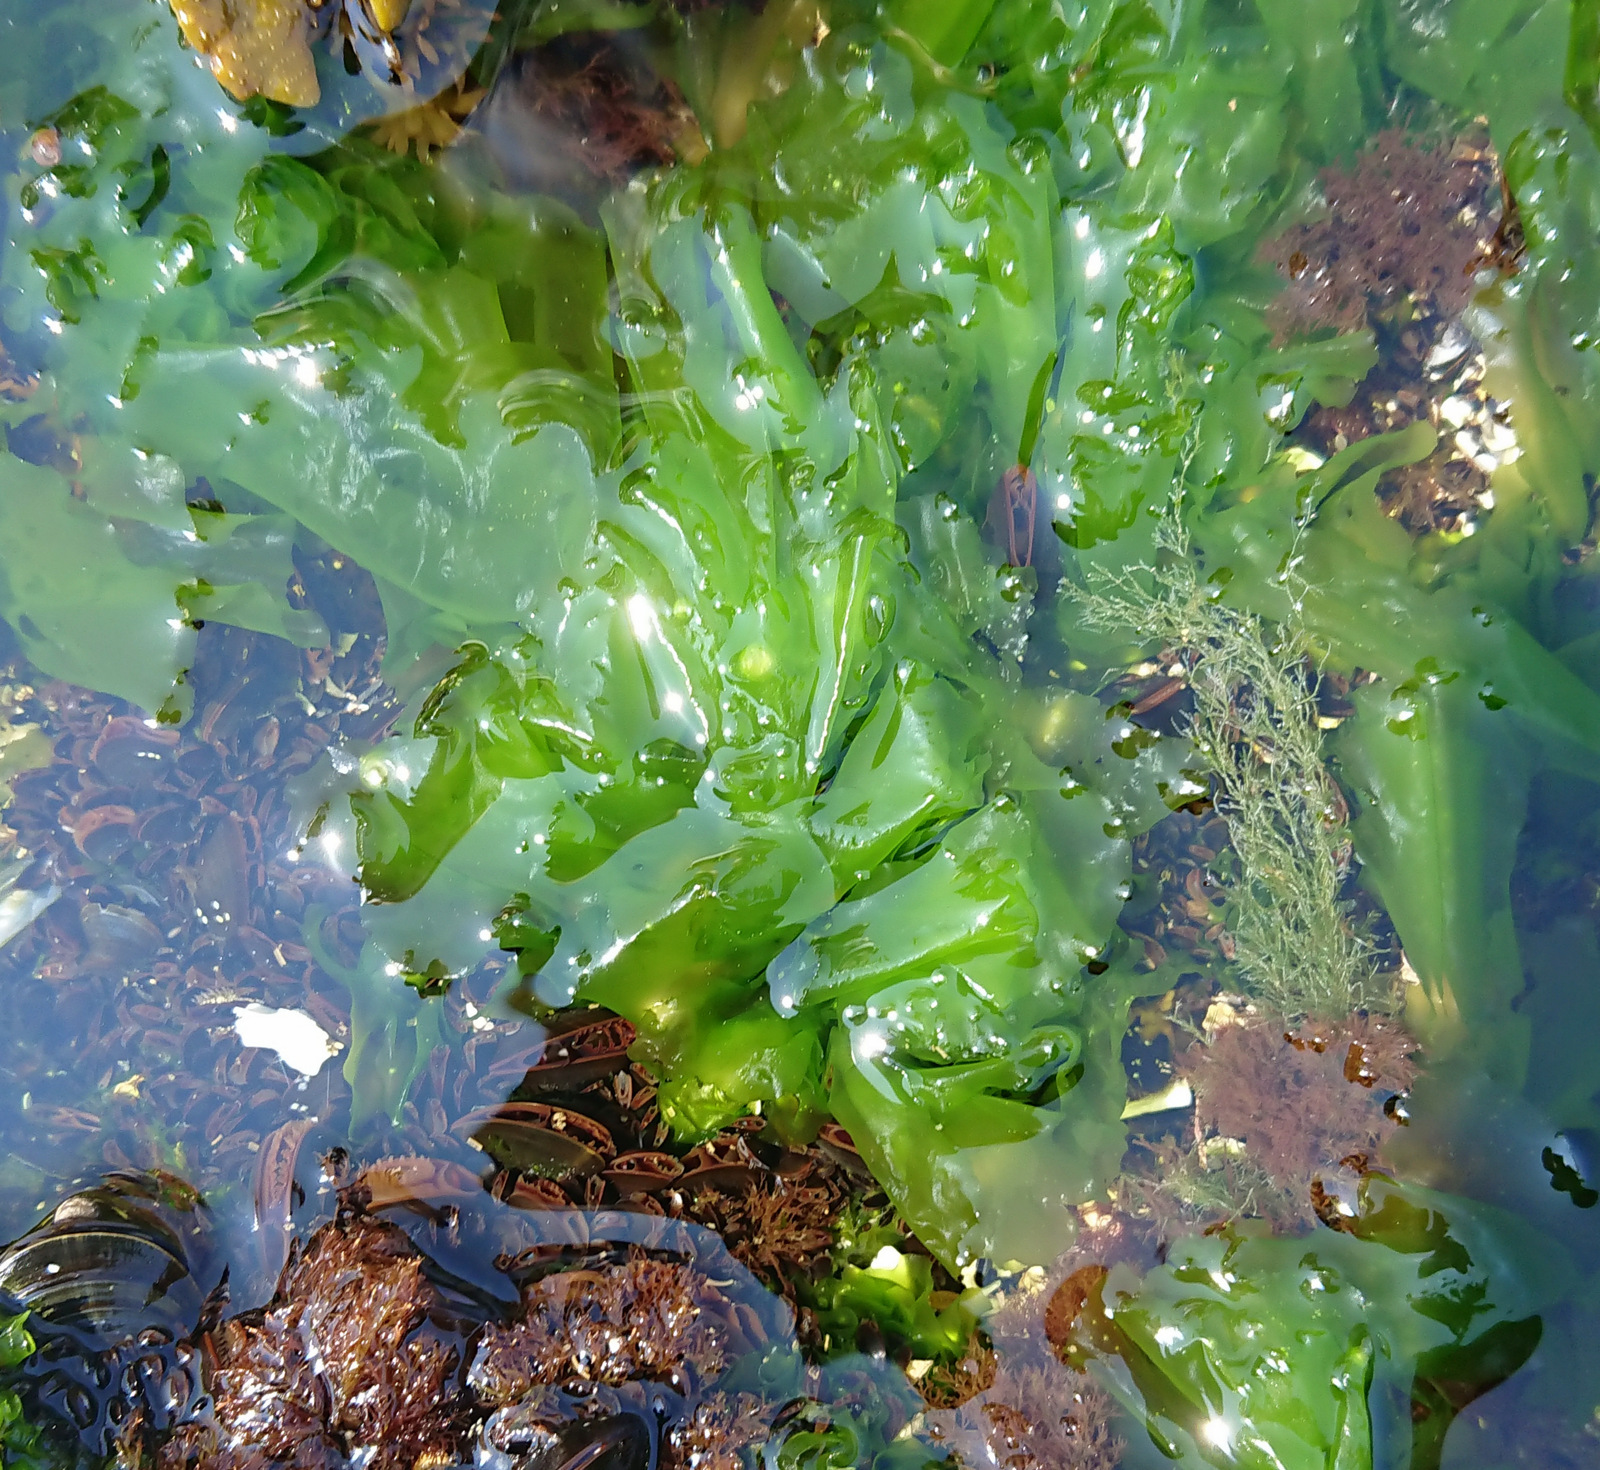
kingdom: Plantae
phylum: Chlorophyta
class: Ulvophyceae
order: Ulvales
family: Ulvaceae
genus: Ulva
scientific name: Ulva lactuca
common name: Sea lettuce
